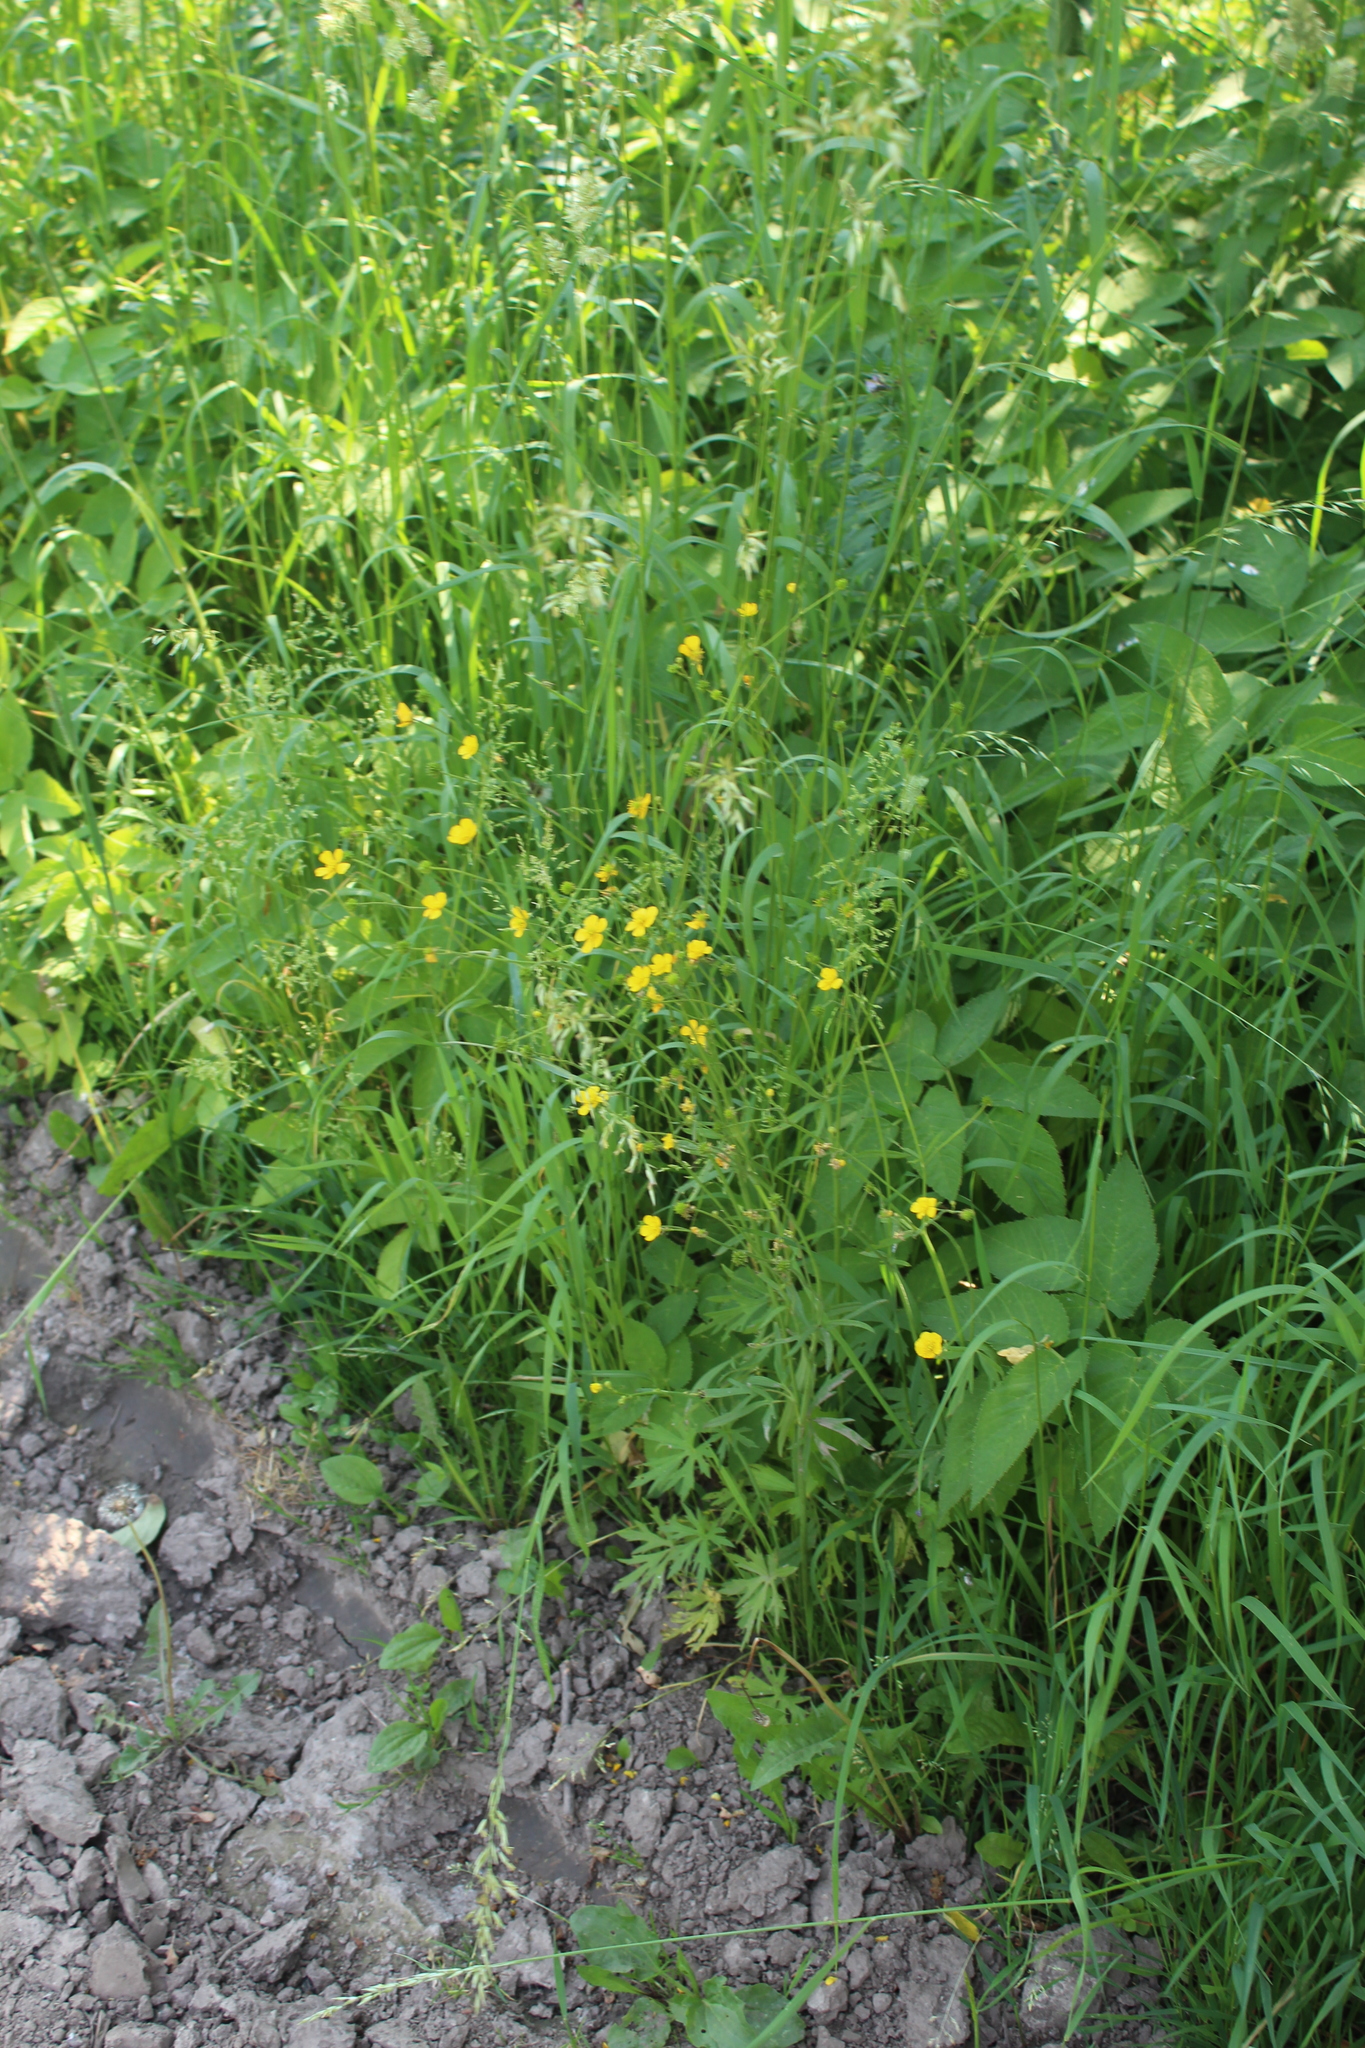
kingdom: Plantae
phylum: Tracheophyta
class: Magnoliopsida
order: Ranunculales
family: Ranunculaceae
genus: Ranunculus
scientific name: Ranunculus acris
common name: Meadow buttercup
